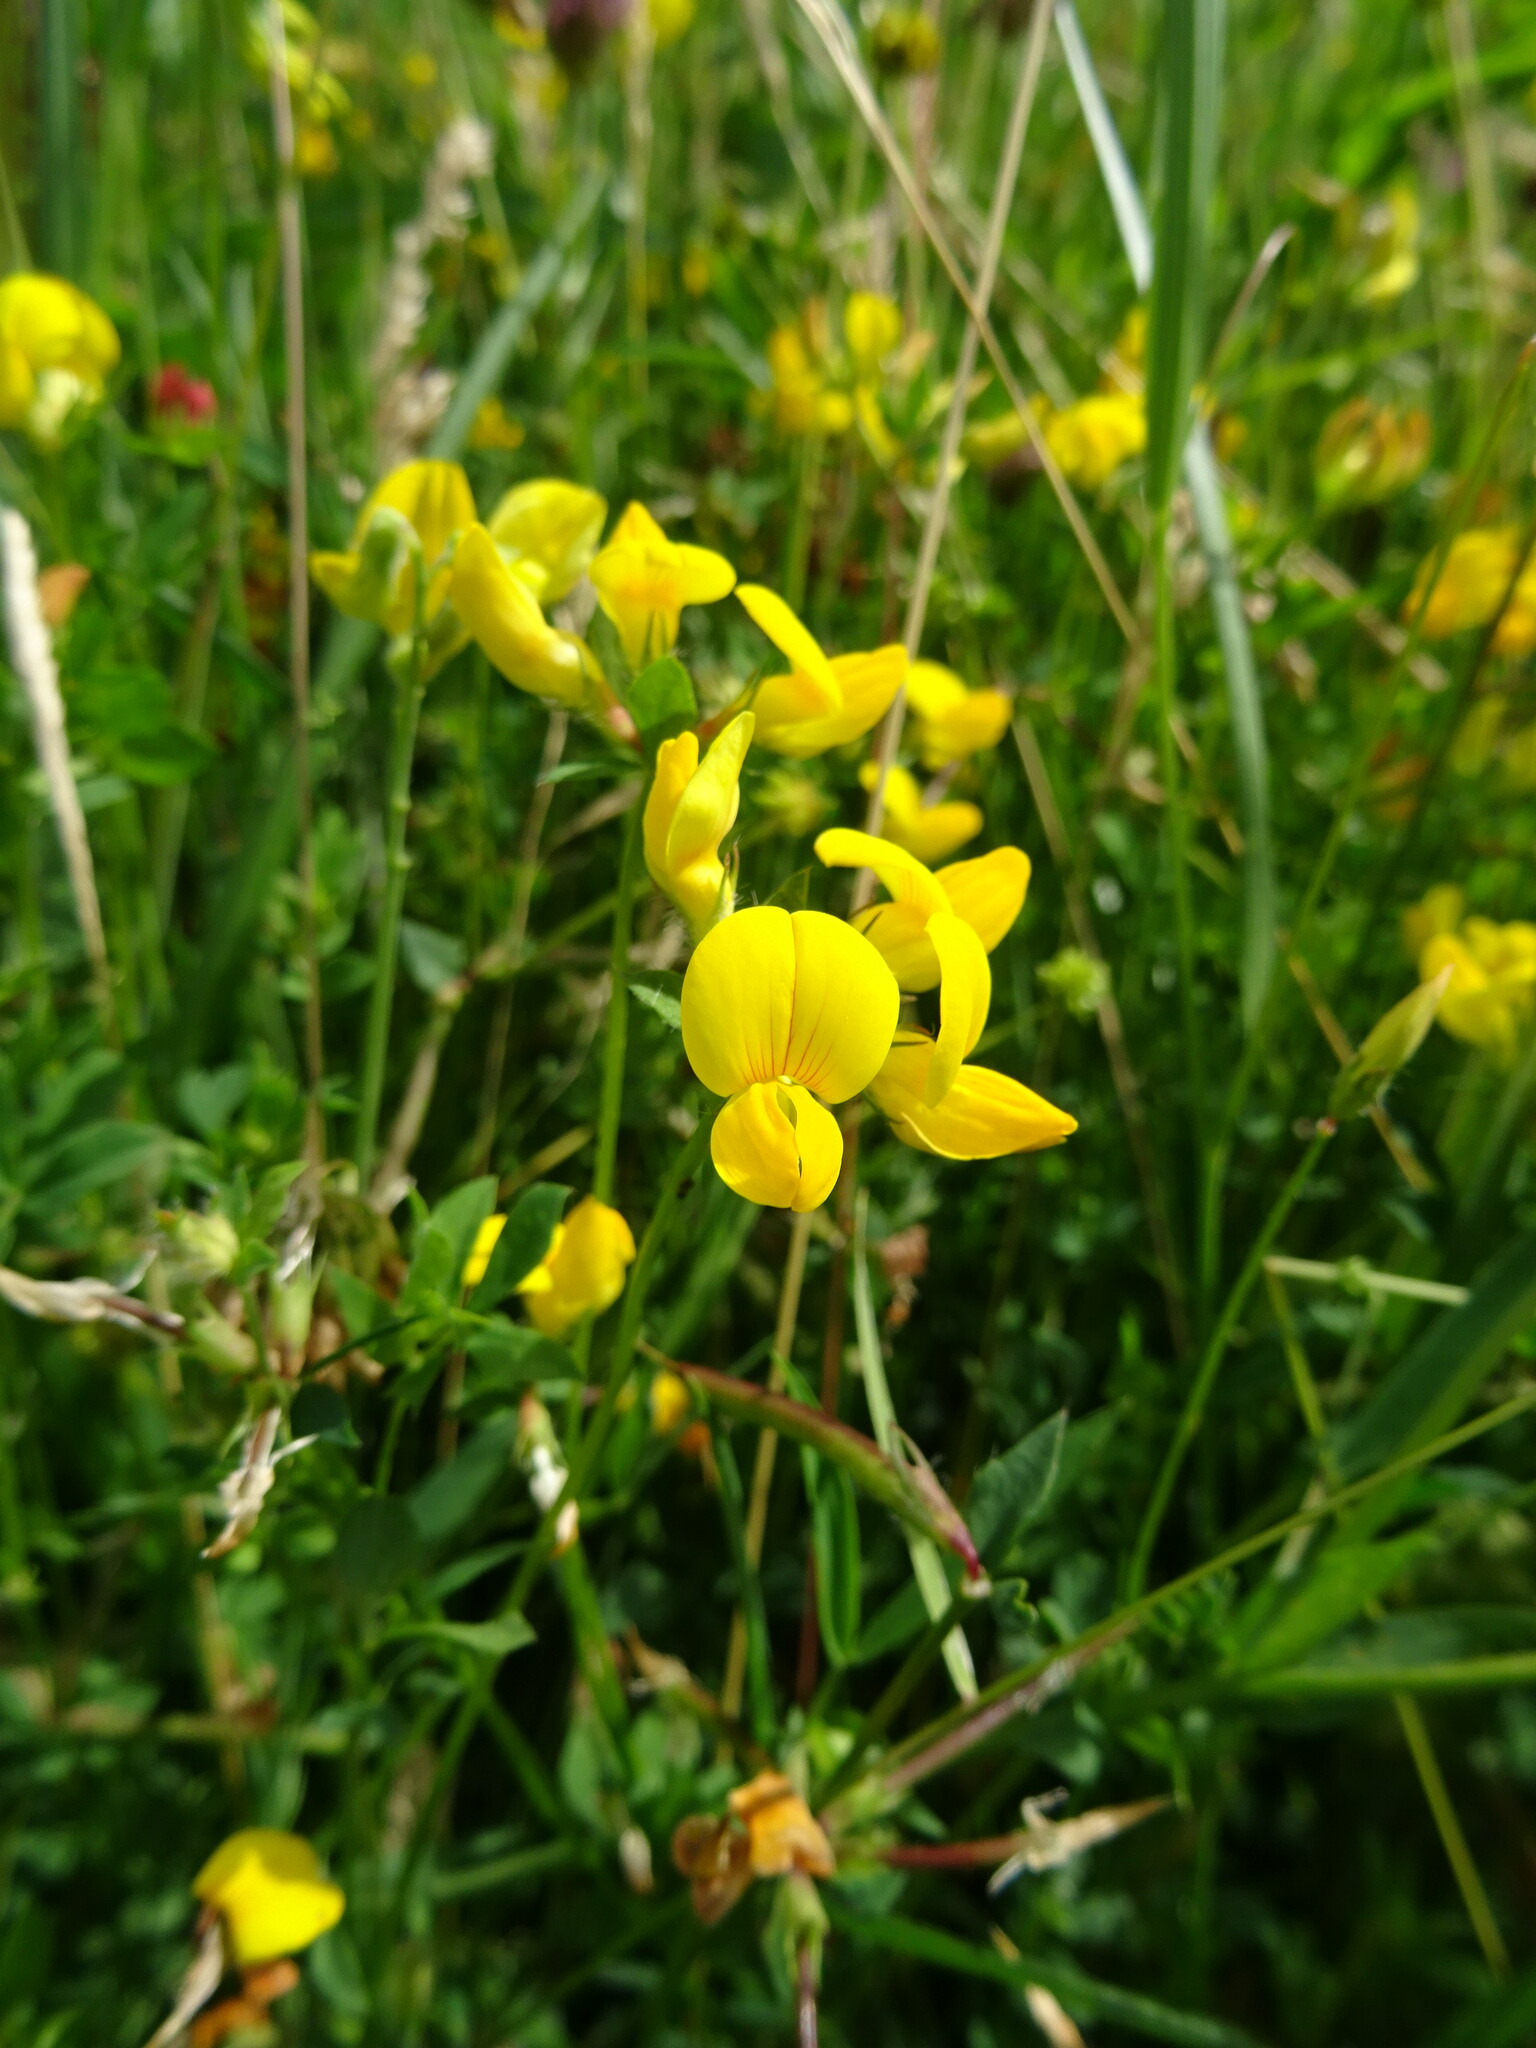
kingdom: Plantae
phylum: Tracheophyta
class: Magnoliopsida
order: Fabales
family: Fabaceae
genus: Lotus
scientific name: Lotus corniculatus
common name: Common bird's-foot-trefoil
